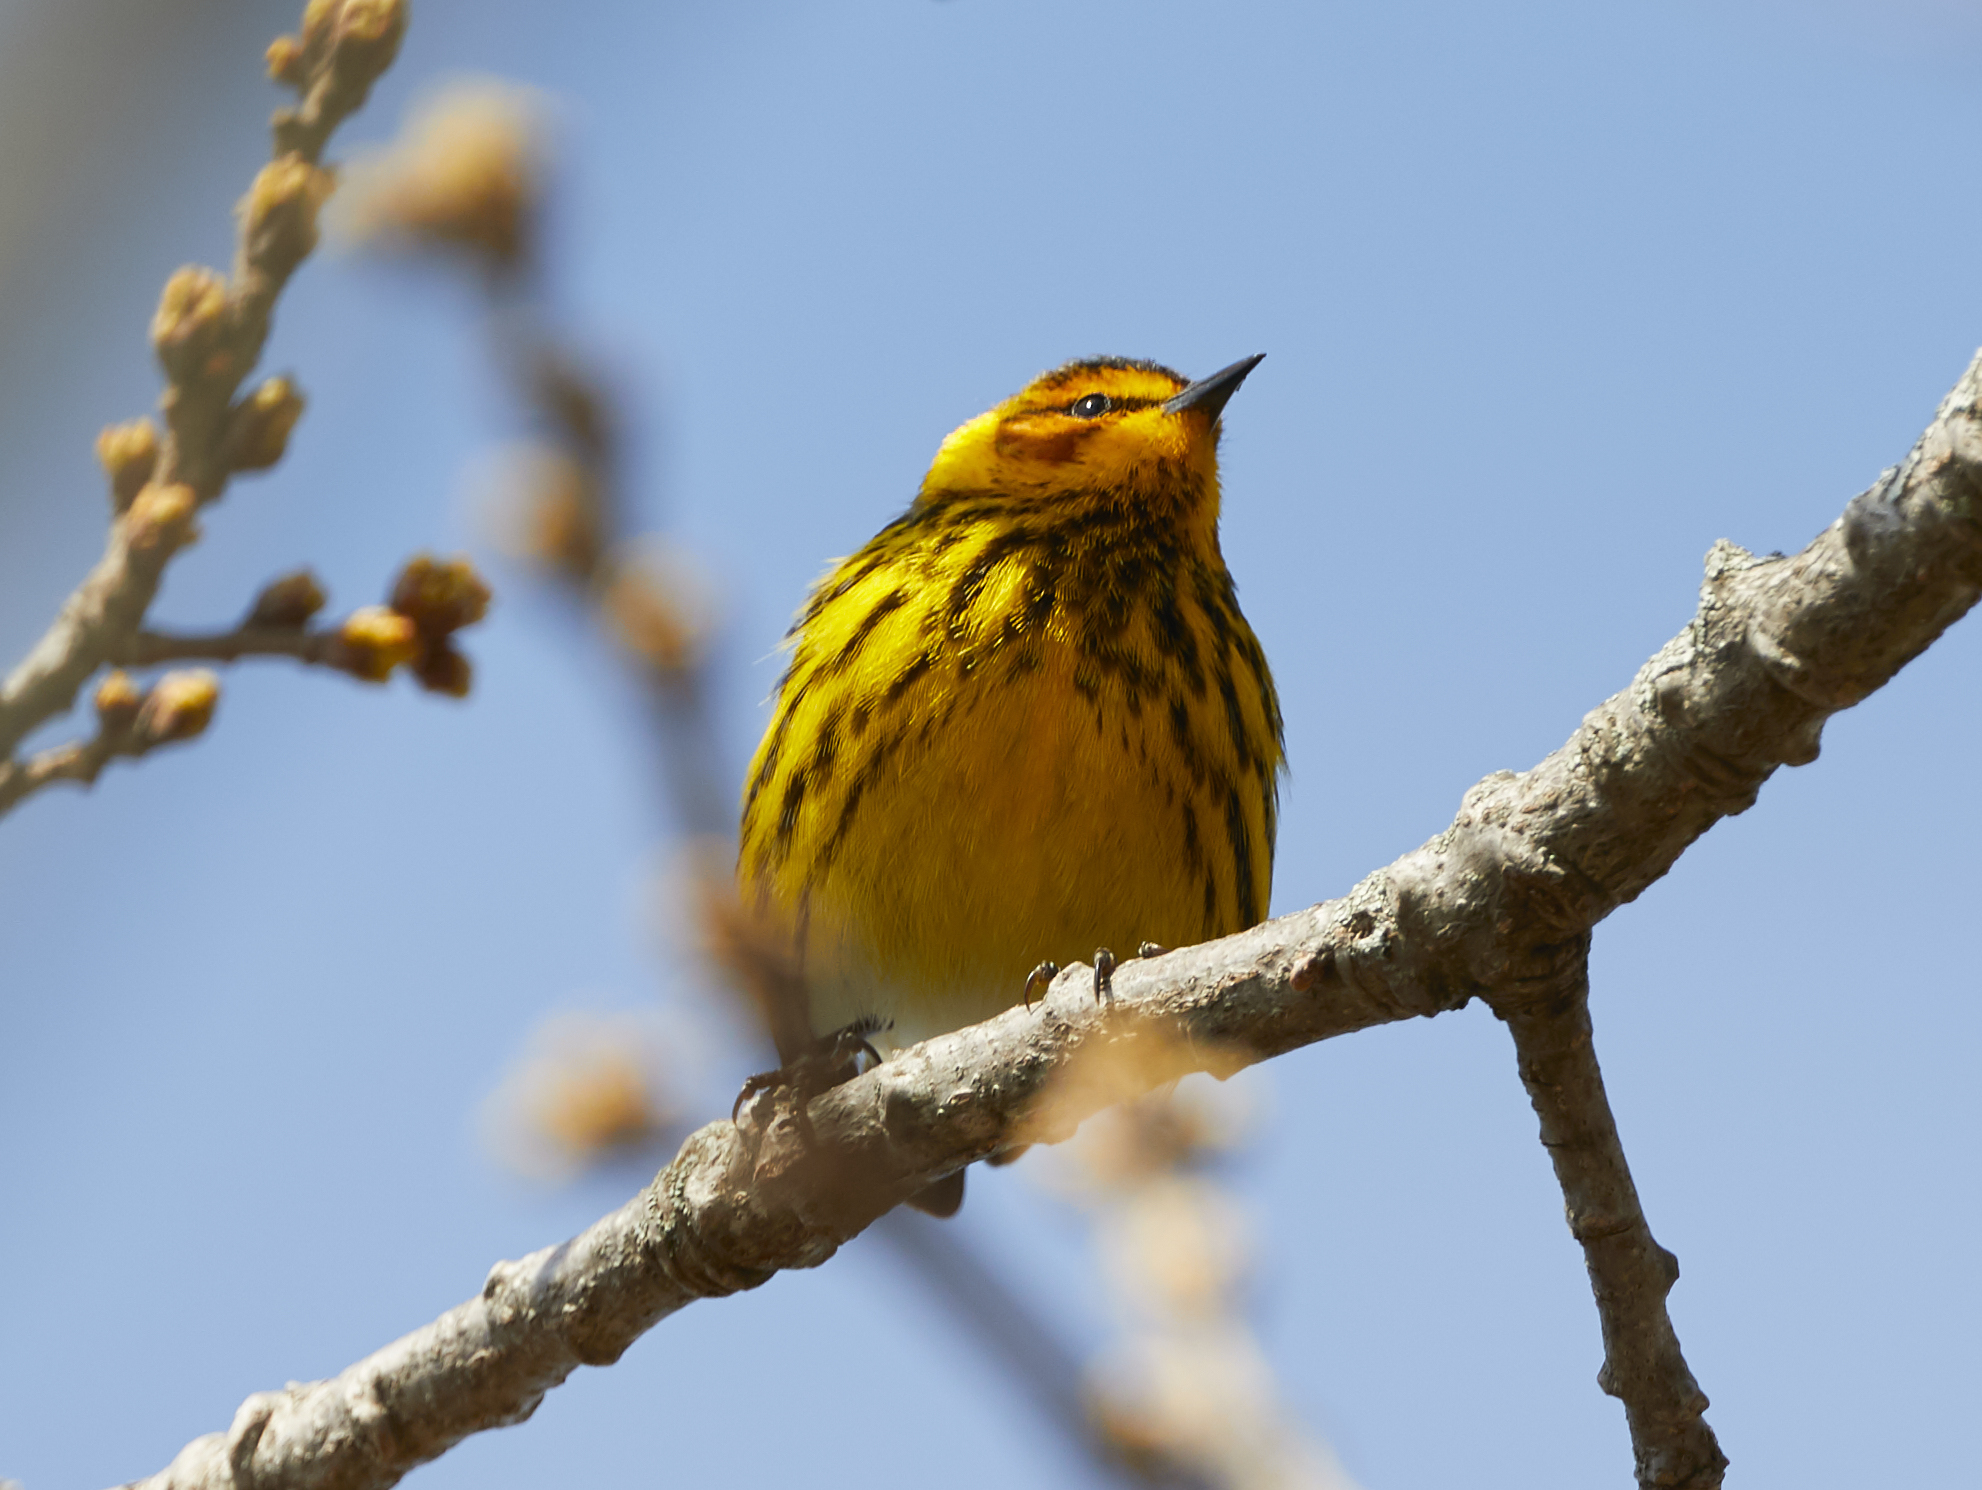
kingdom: Animalia
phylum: Chordata
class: Aves
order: Passeriformes
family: Parulidae
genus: Setophaga
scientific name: Setophaga tigrina
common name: Cape may warbler
